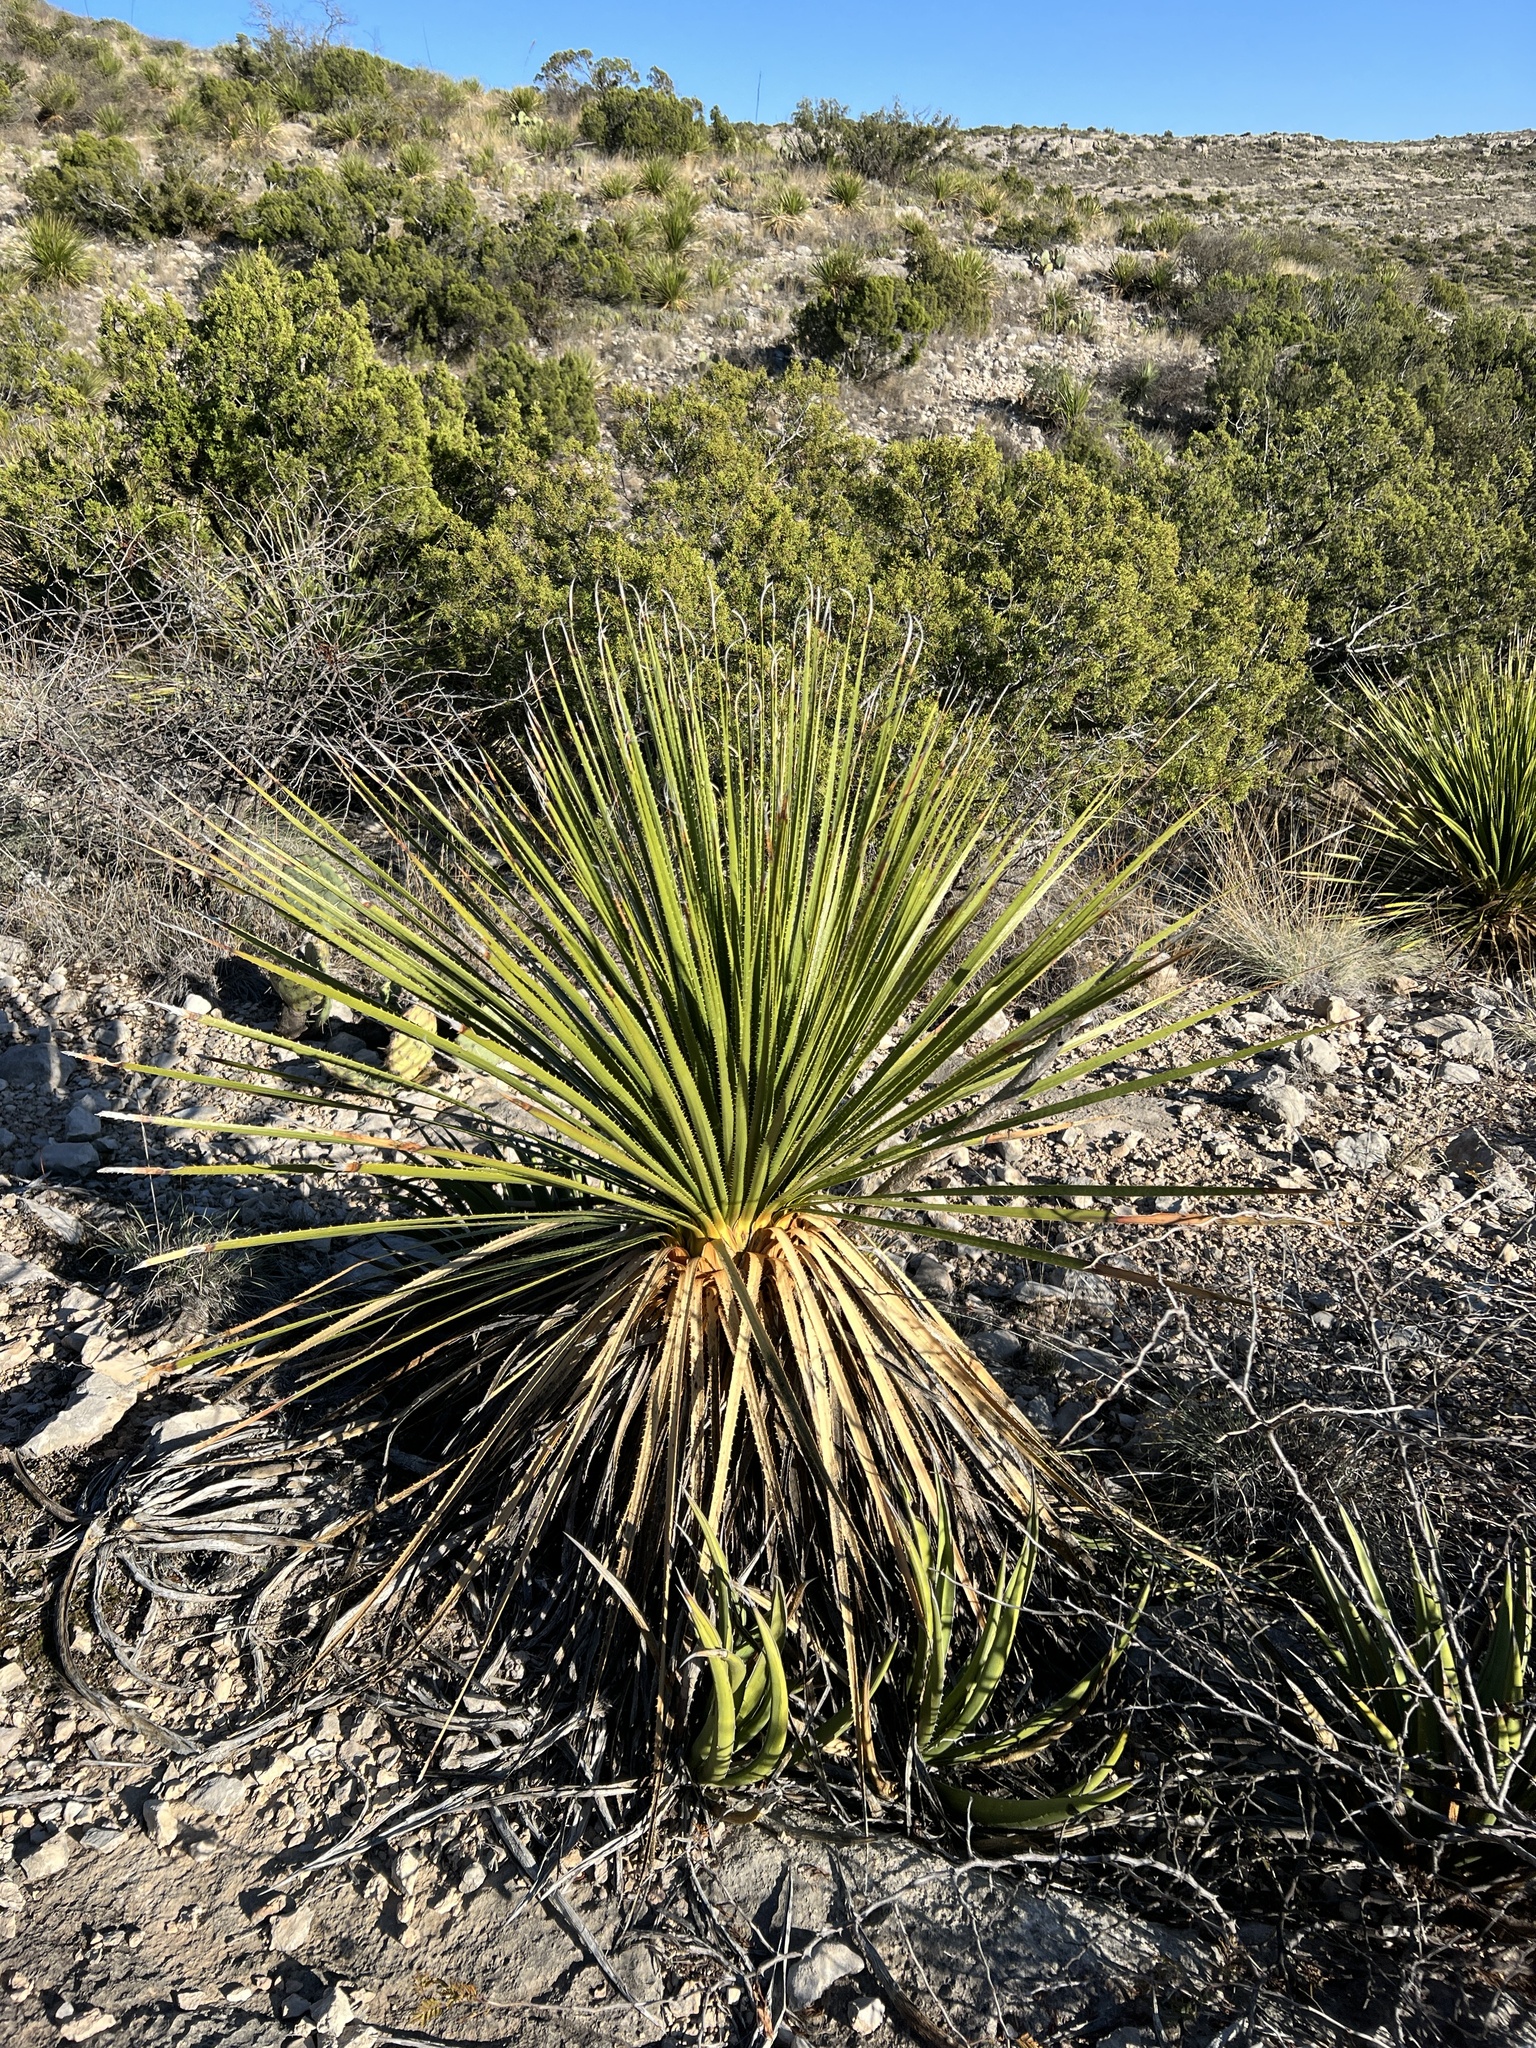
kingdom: Plantae
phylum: Tracheophyta
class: Liliopsida
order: Asparagales
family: Asparagaceae
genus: Dasylirion
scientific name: Dasylirion texanum
